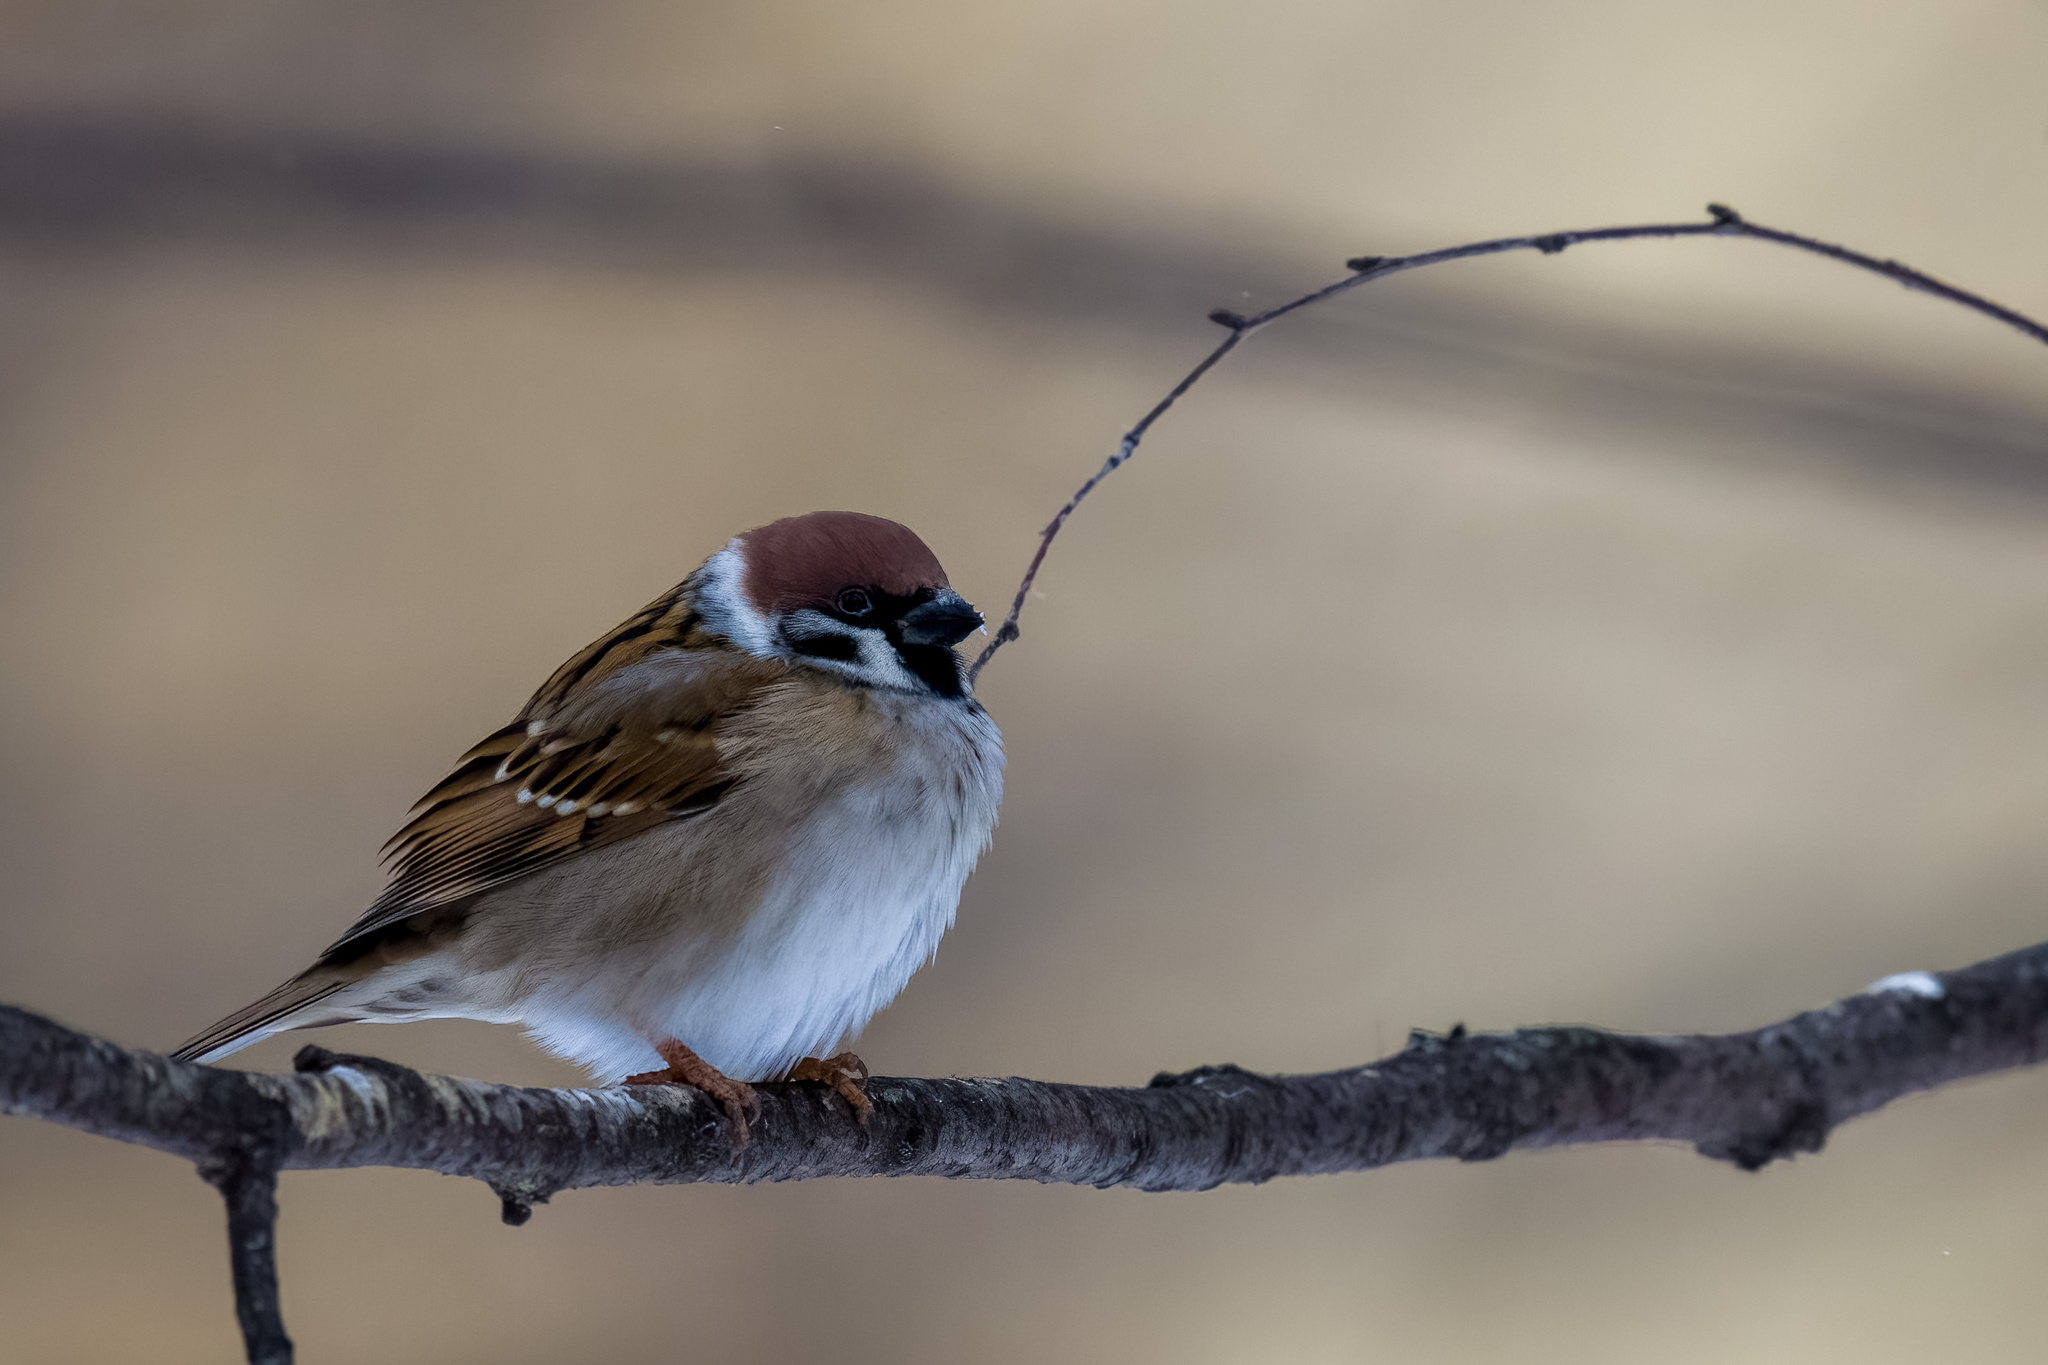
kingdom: Animalia
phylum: Chordata
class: Aves
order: Passeriformes
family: Passeridae
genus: Passer
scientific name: Passer montanus
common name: Eurasian tree sparrow
